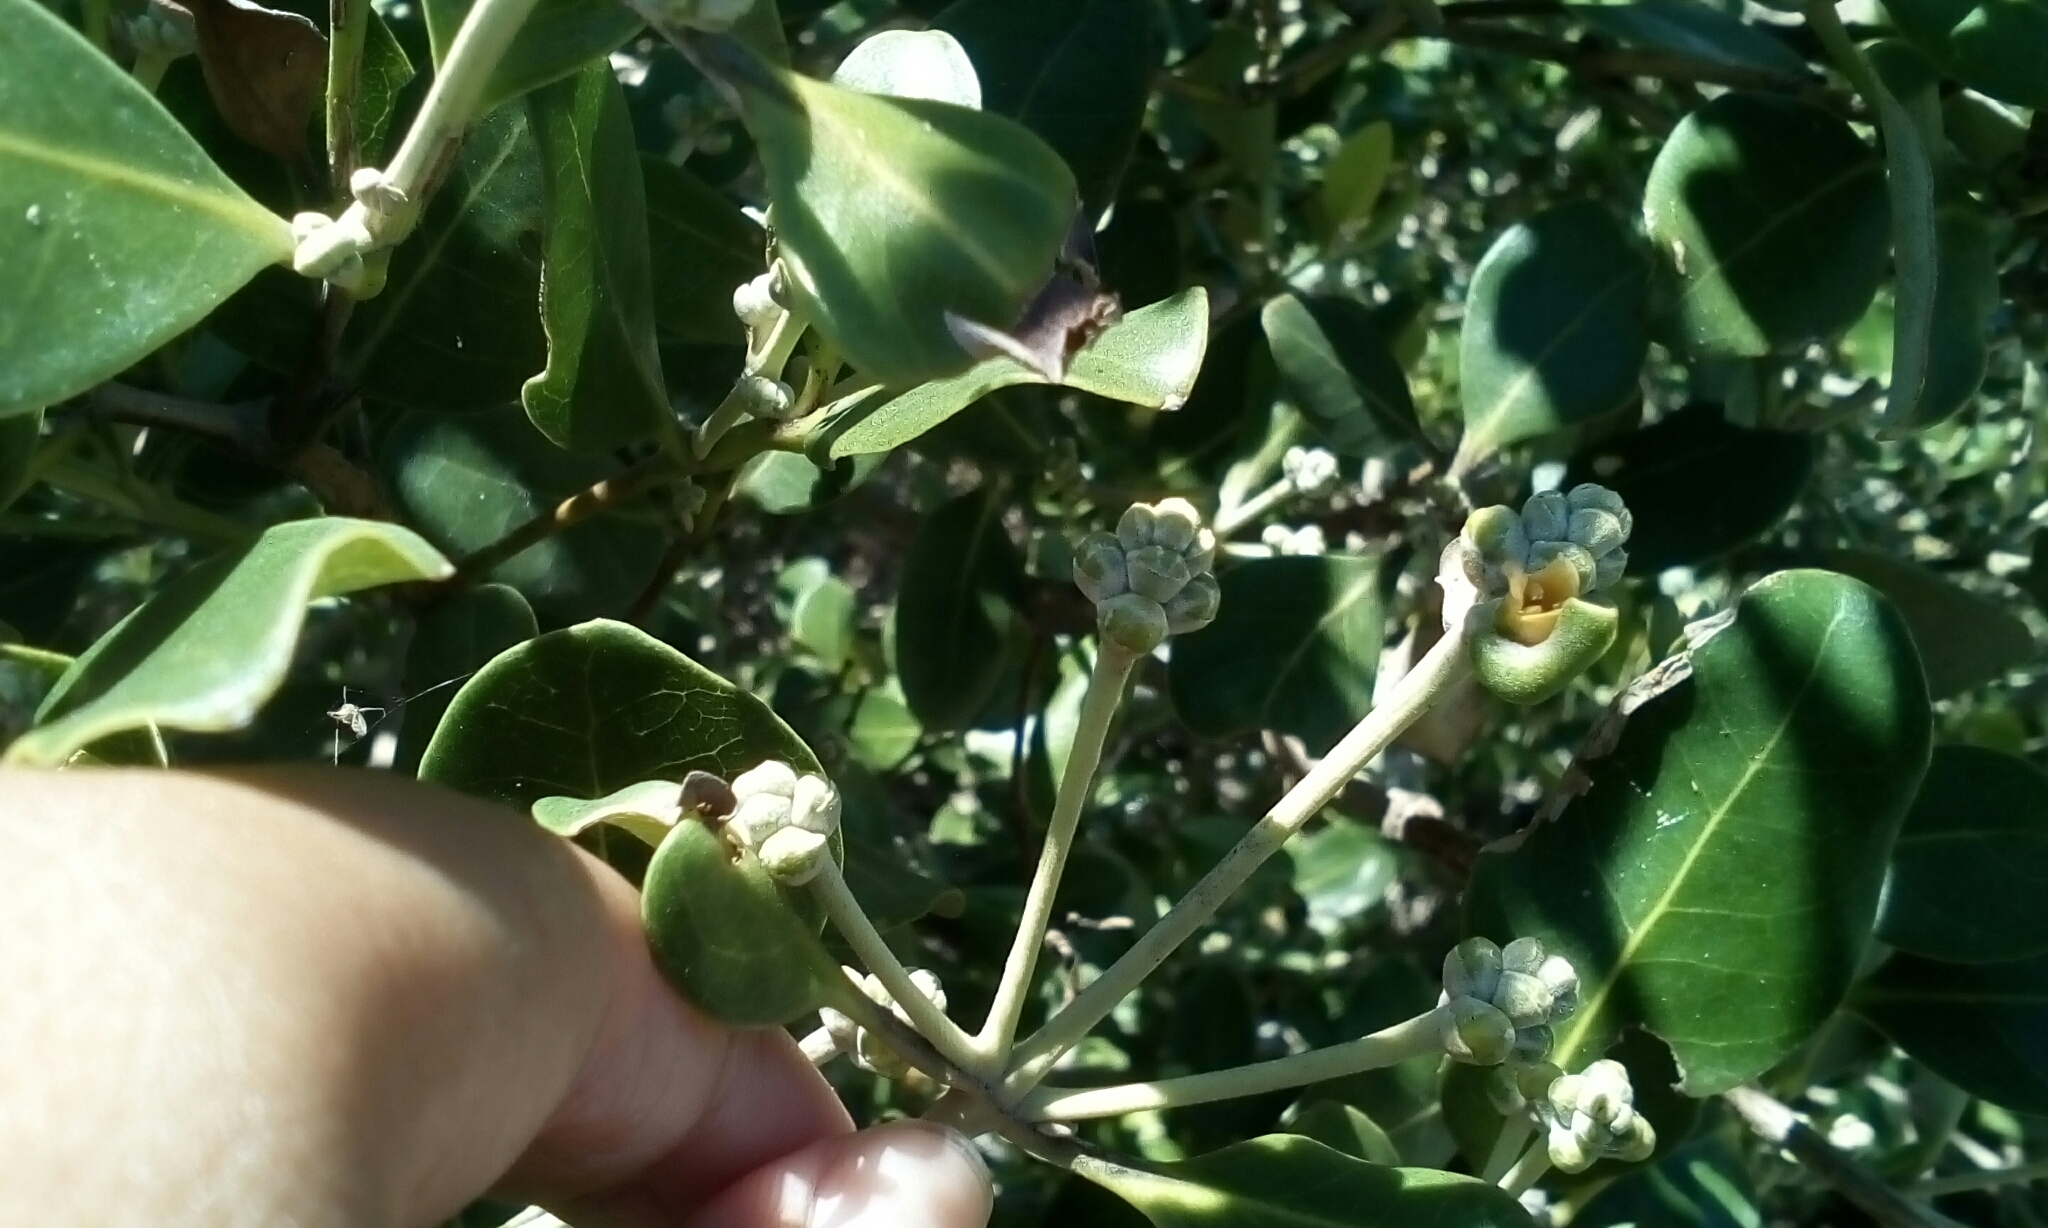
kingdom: Plantae
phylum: Tracheophyta
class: Magnoliopsida
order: Lamiales
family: Acanthaceae
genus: Avicennia
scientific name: Avicennia marina
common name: Gray mangrove
